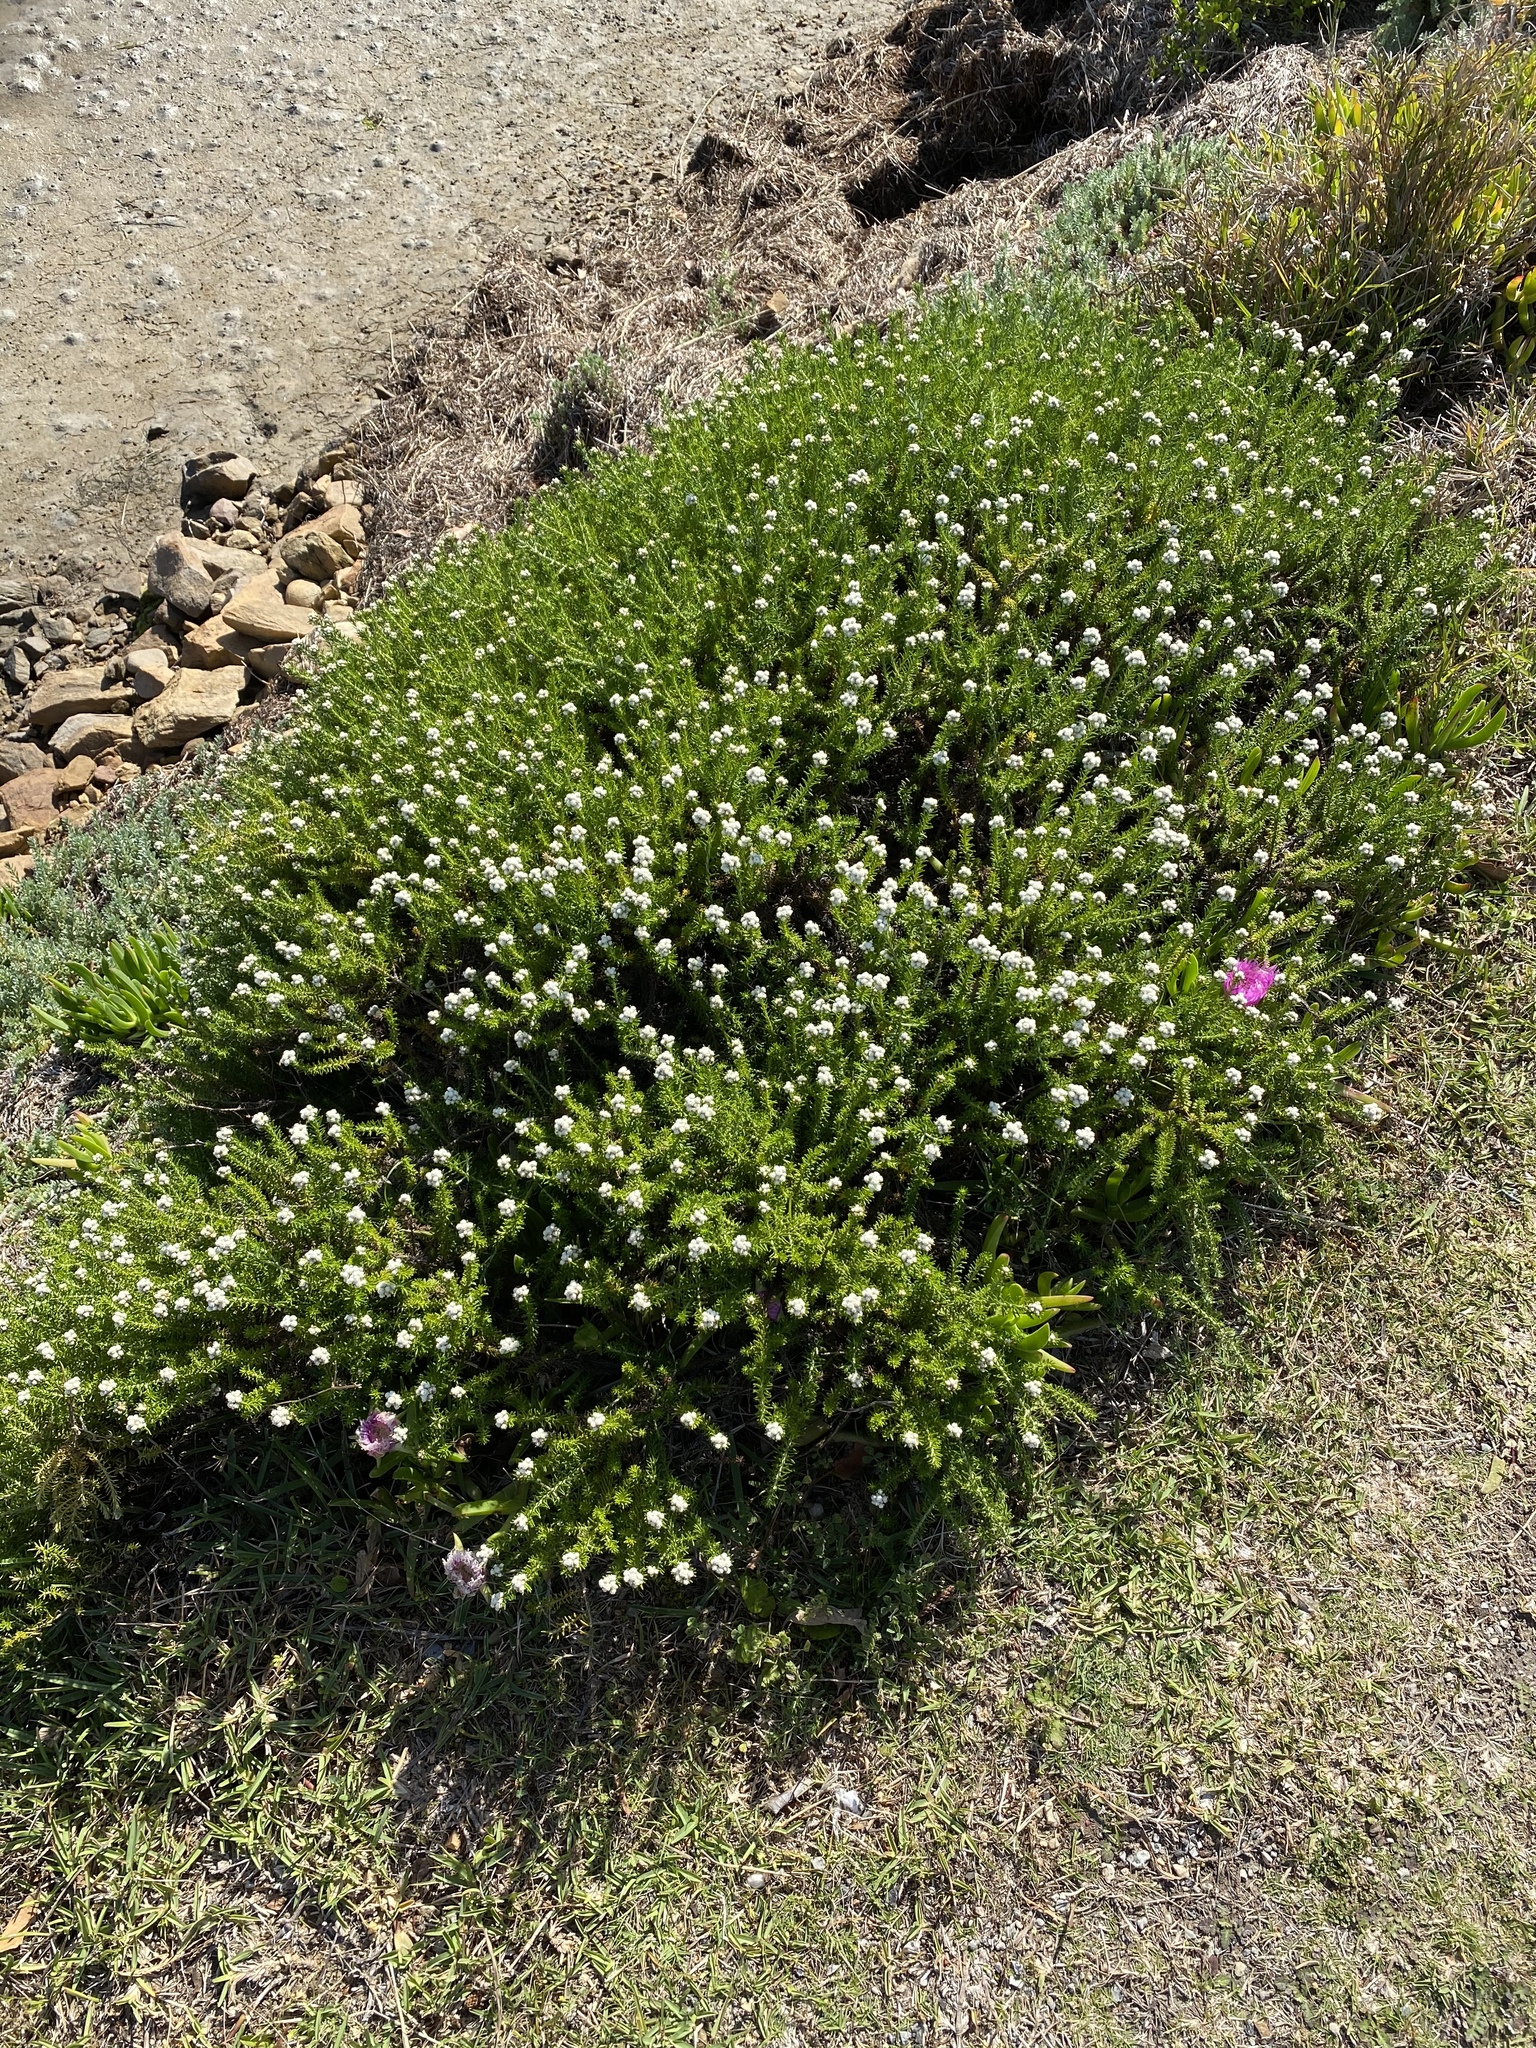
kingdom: Plantae
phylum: Tracheophyta
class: Magnoliopsida
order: Asterales
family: Asteraceae
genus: Helichrysum
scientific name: Helichrysum teretifolium
